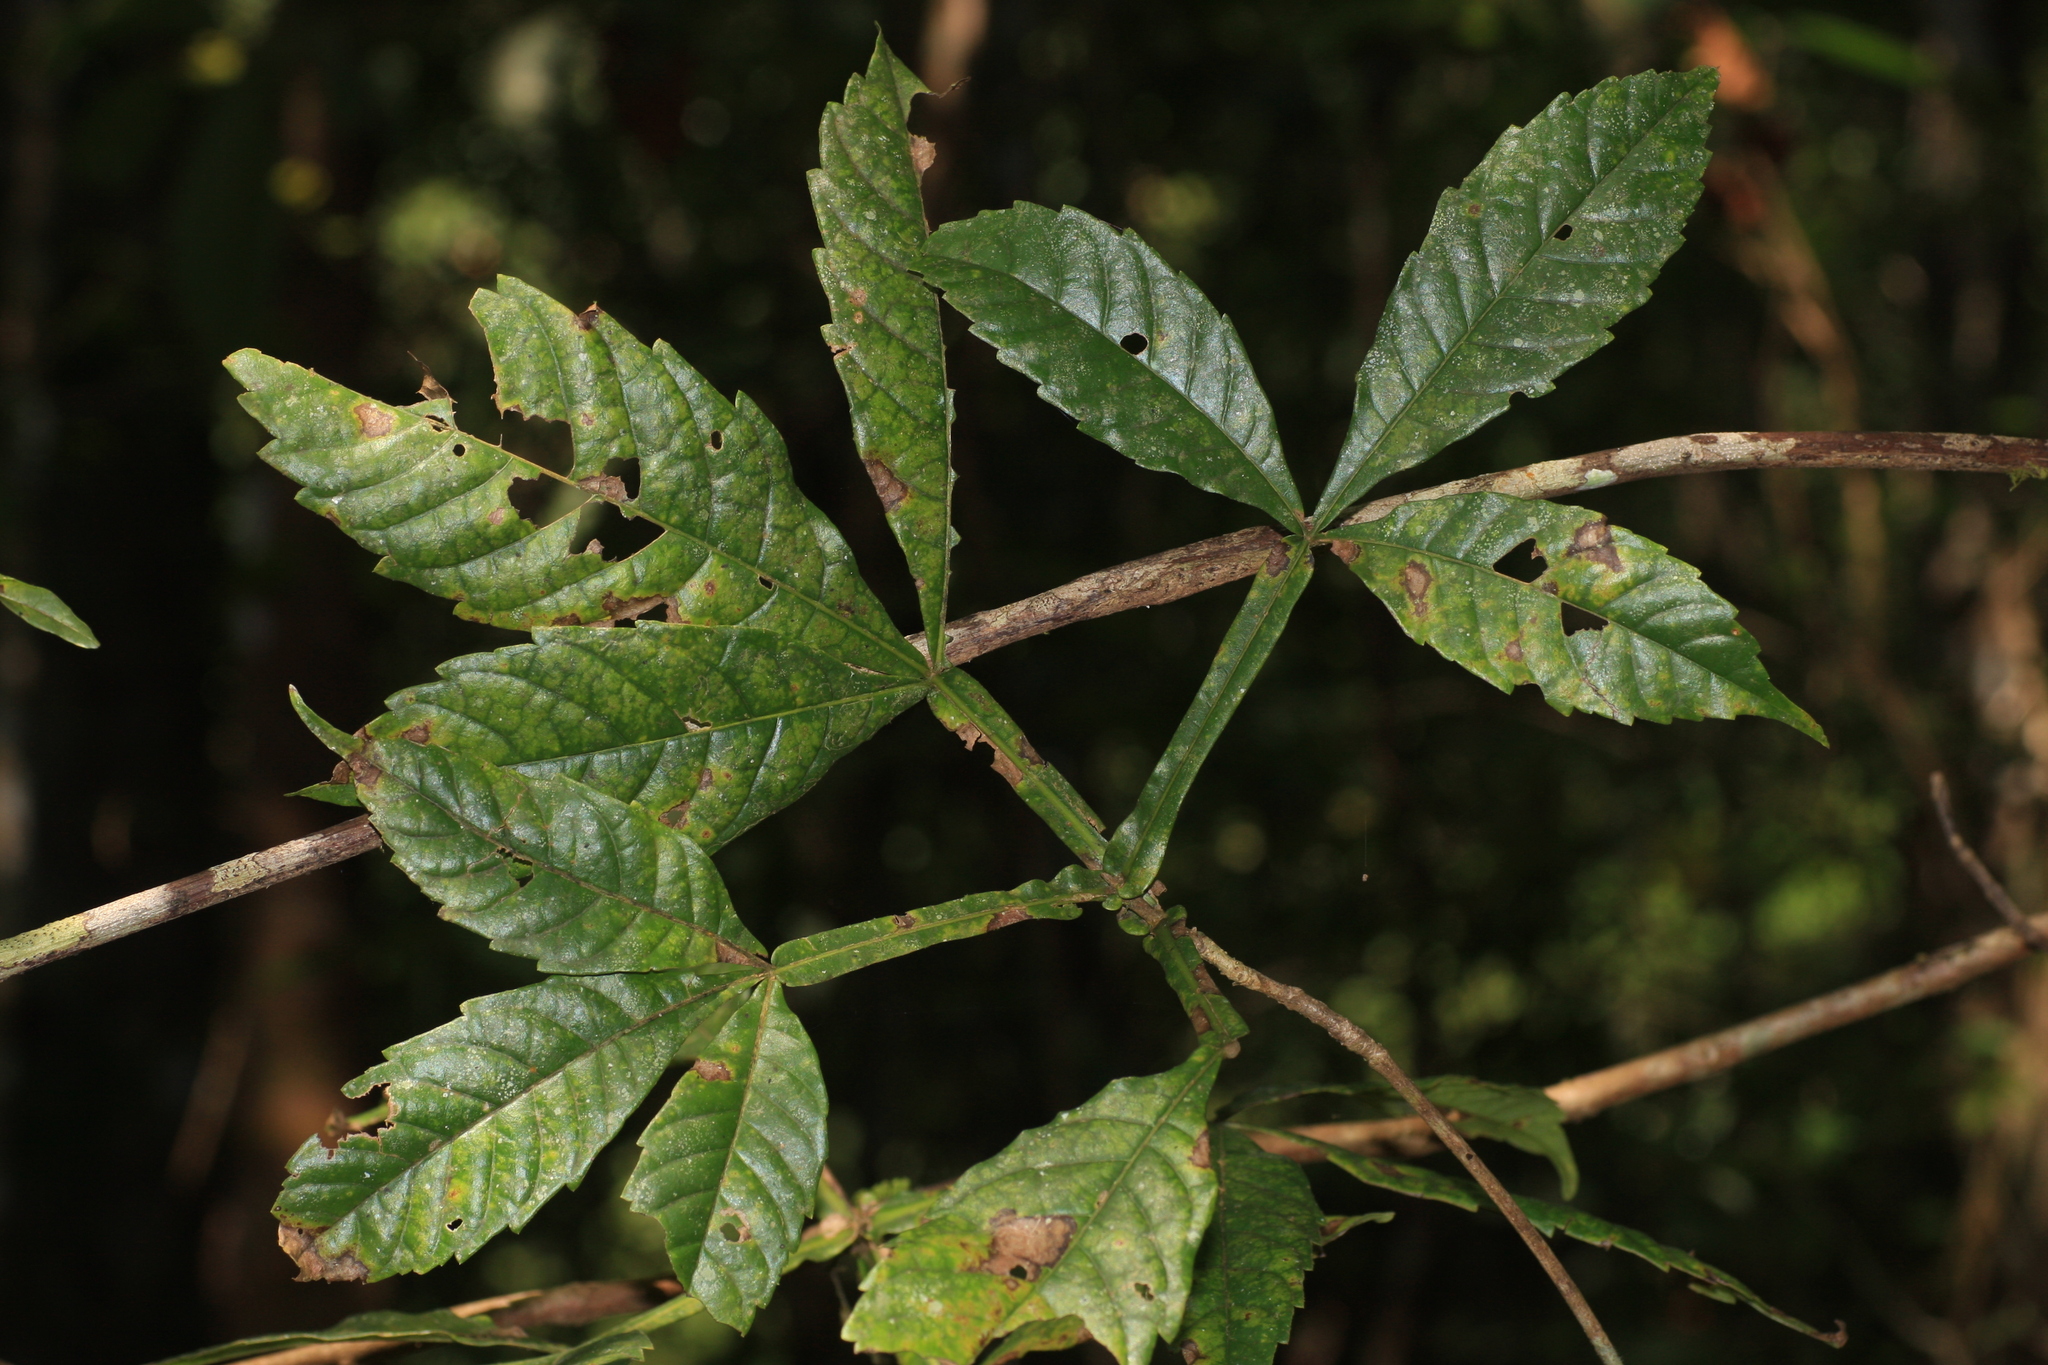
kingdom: Plantae
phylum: Tracheophyta
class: Magnoliopsida
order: Lamiales
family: Lamiaceae
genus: Vitex
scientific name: Vitex altissima
